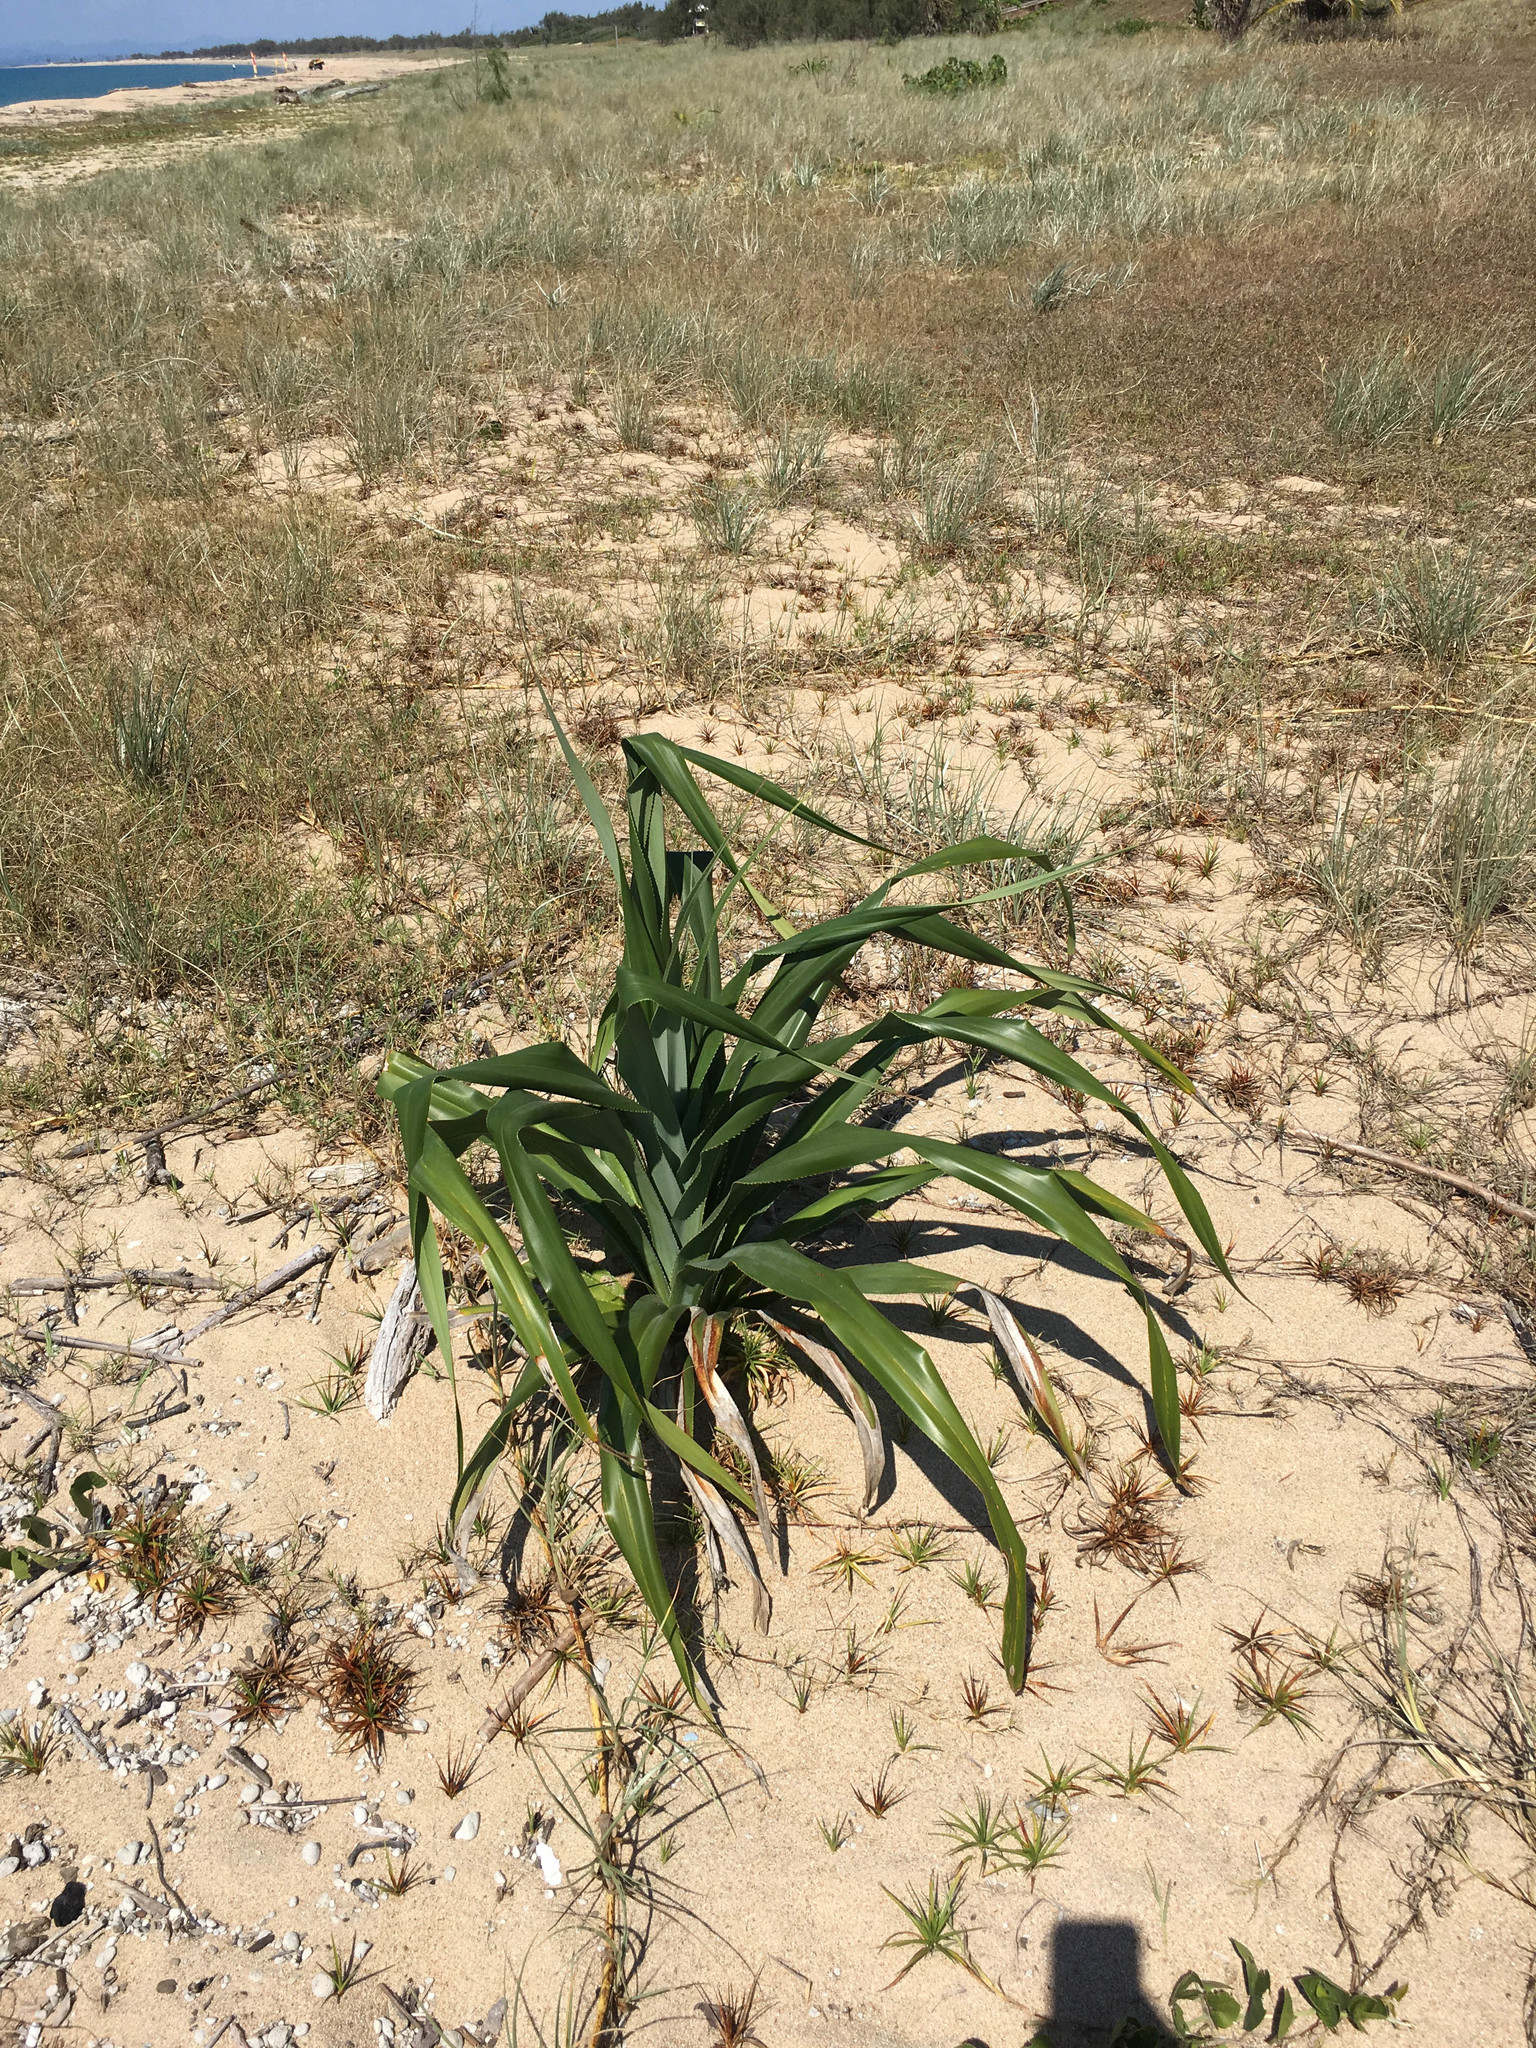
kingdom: Plantae
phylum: Tracheophyta
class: Liliopsida
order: Pandanales
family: Pandanaceae
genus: Pandanus
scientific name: Pandanus tectorius
